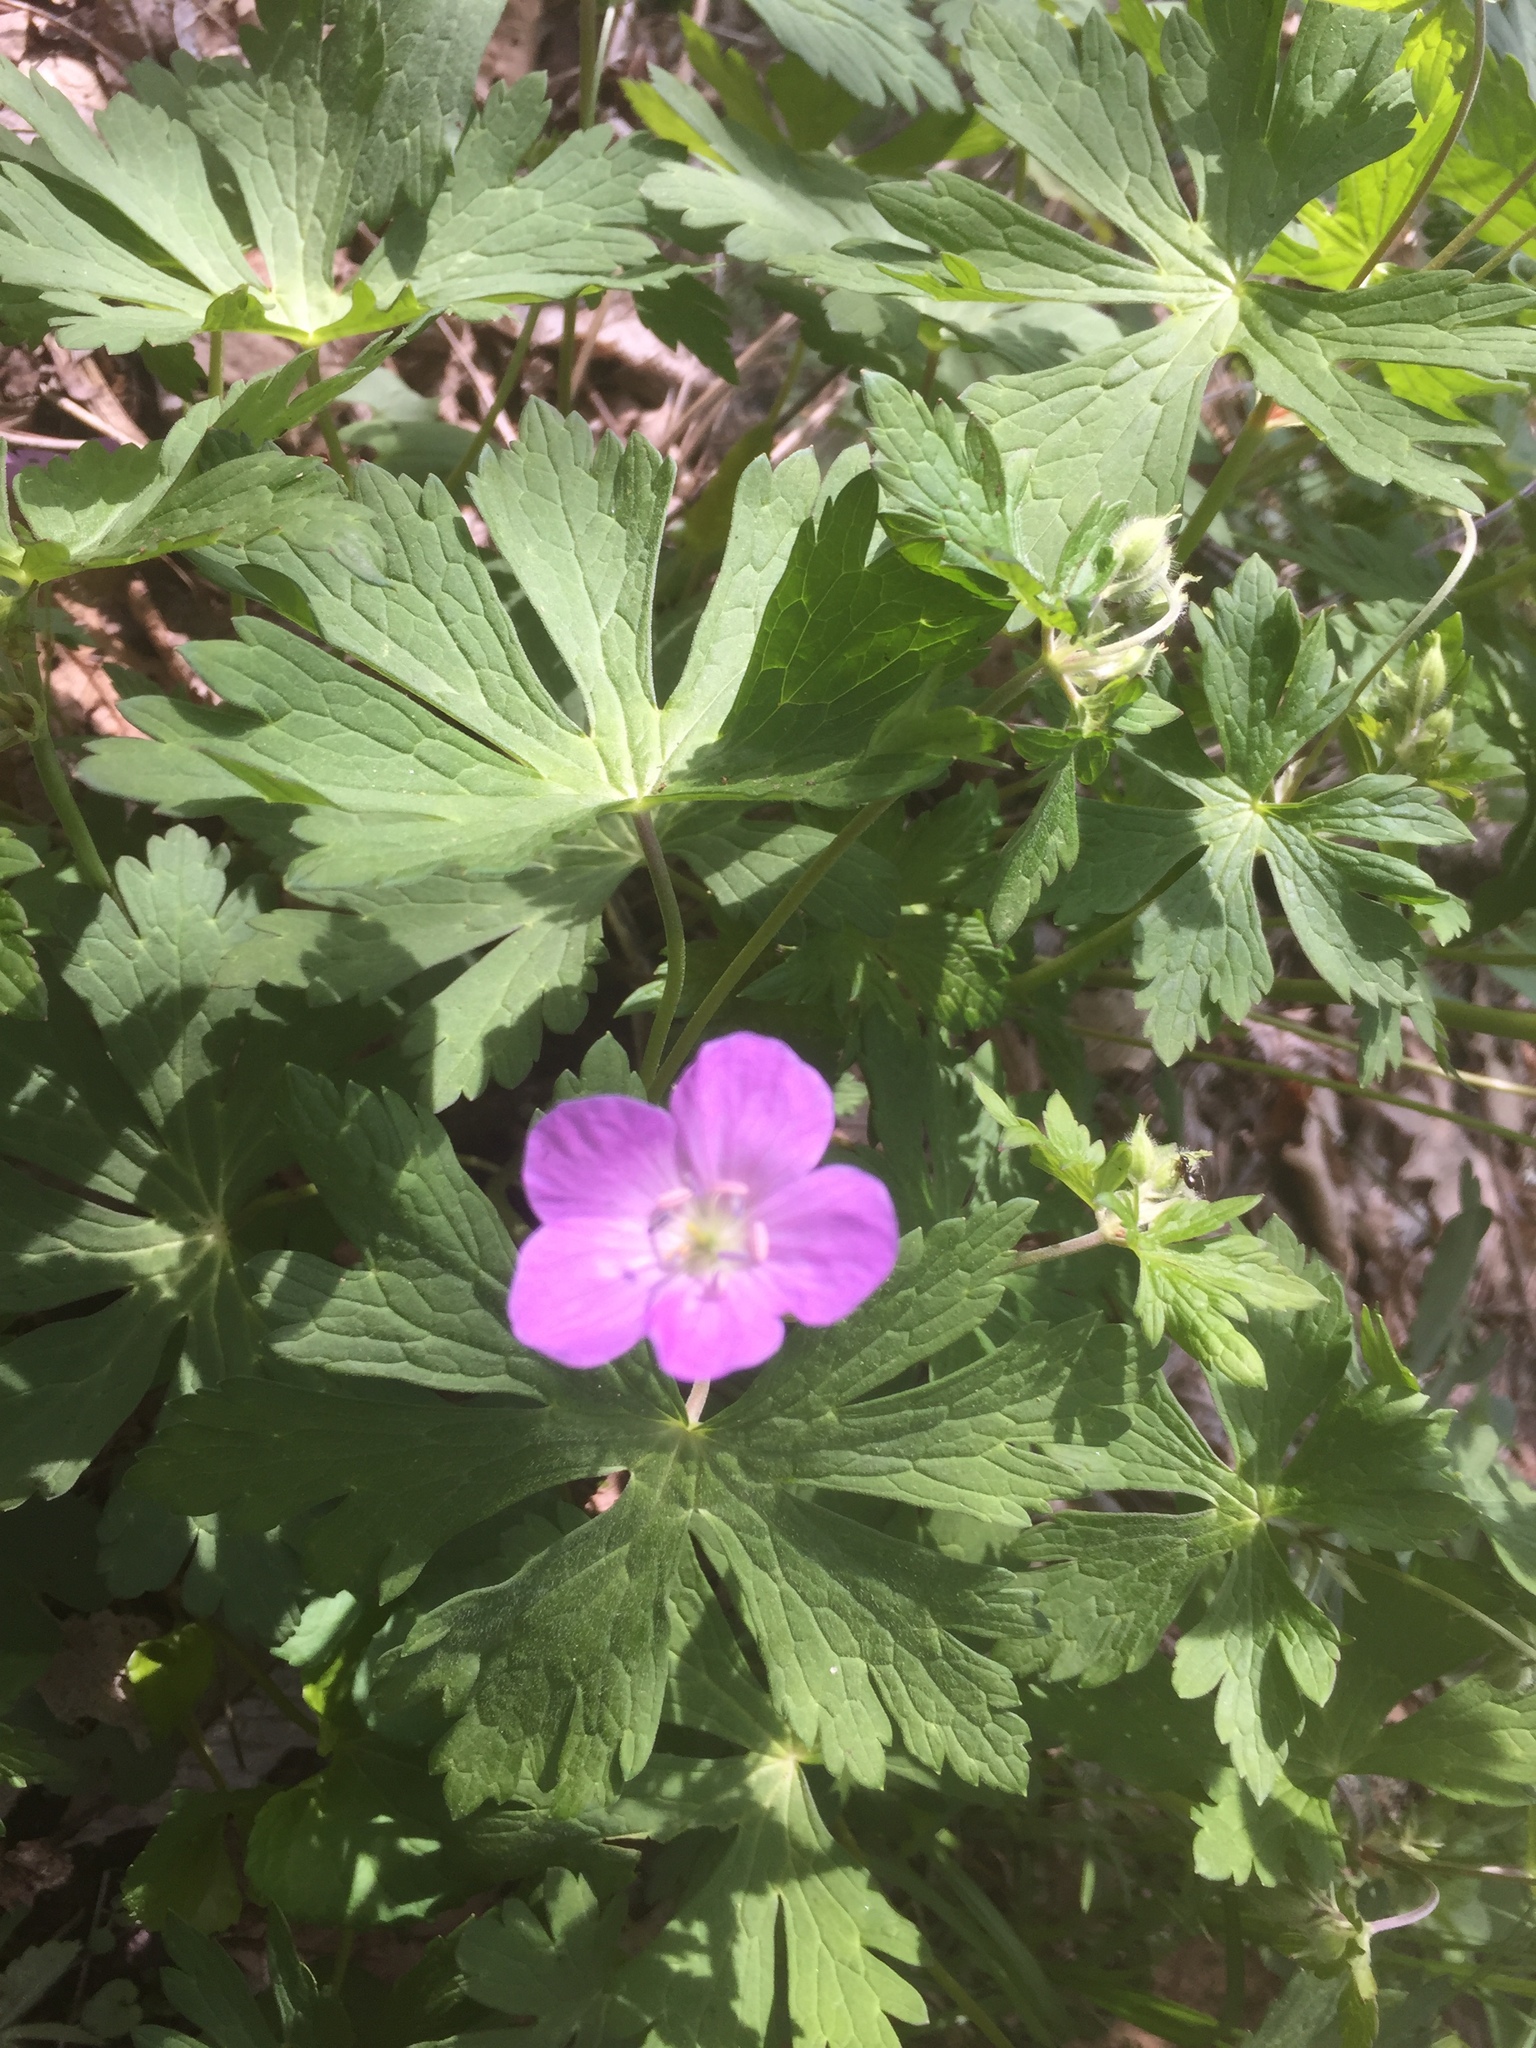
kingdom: Plantae
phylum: Tracheophyta
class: Magnoliopsida
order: Geraniales
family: Geraniaceae
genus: Geranium
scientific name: Geranium maculatum
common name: Spotted geranium
